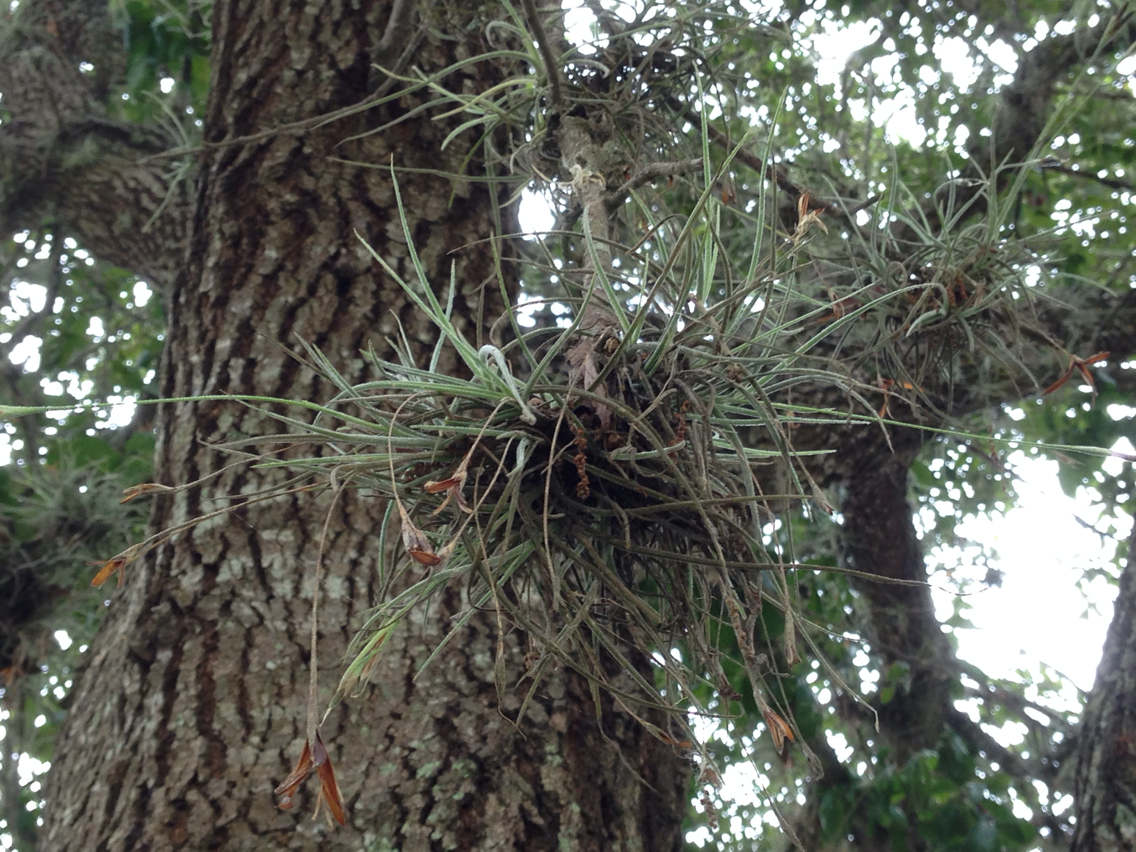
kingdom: Plantae
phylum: Tracheophyta
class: Liliopsida
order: Poales
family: Bromeliaceae
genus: Tillandsia
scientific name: Tillandsia recurvata
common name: Small ballmoss
